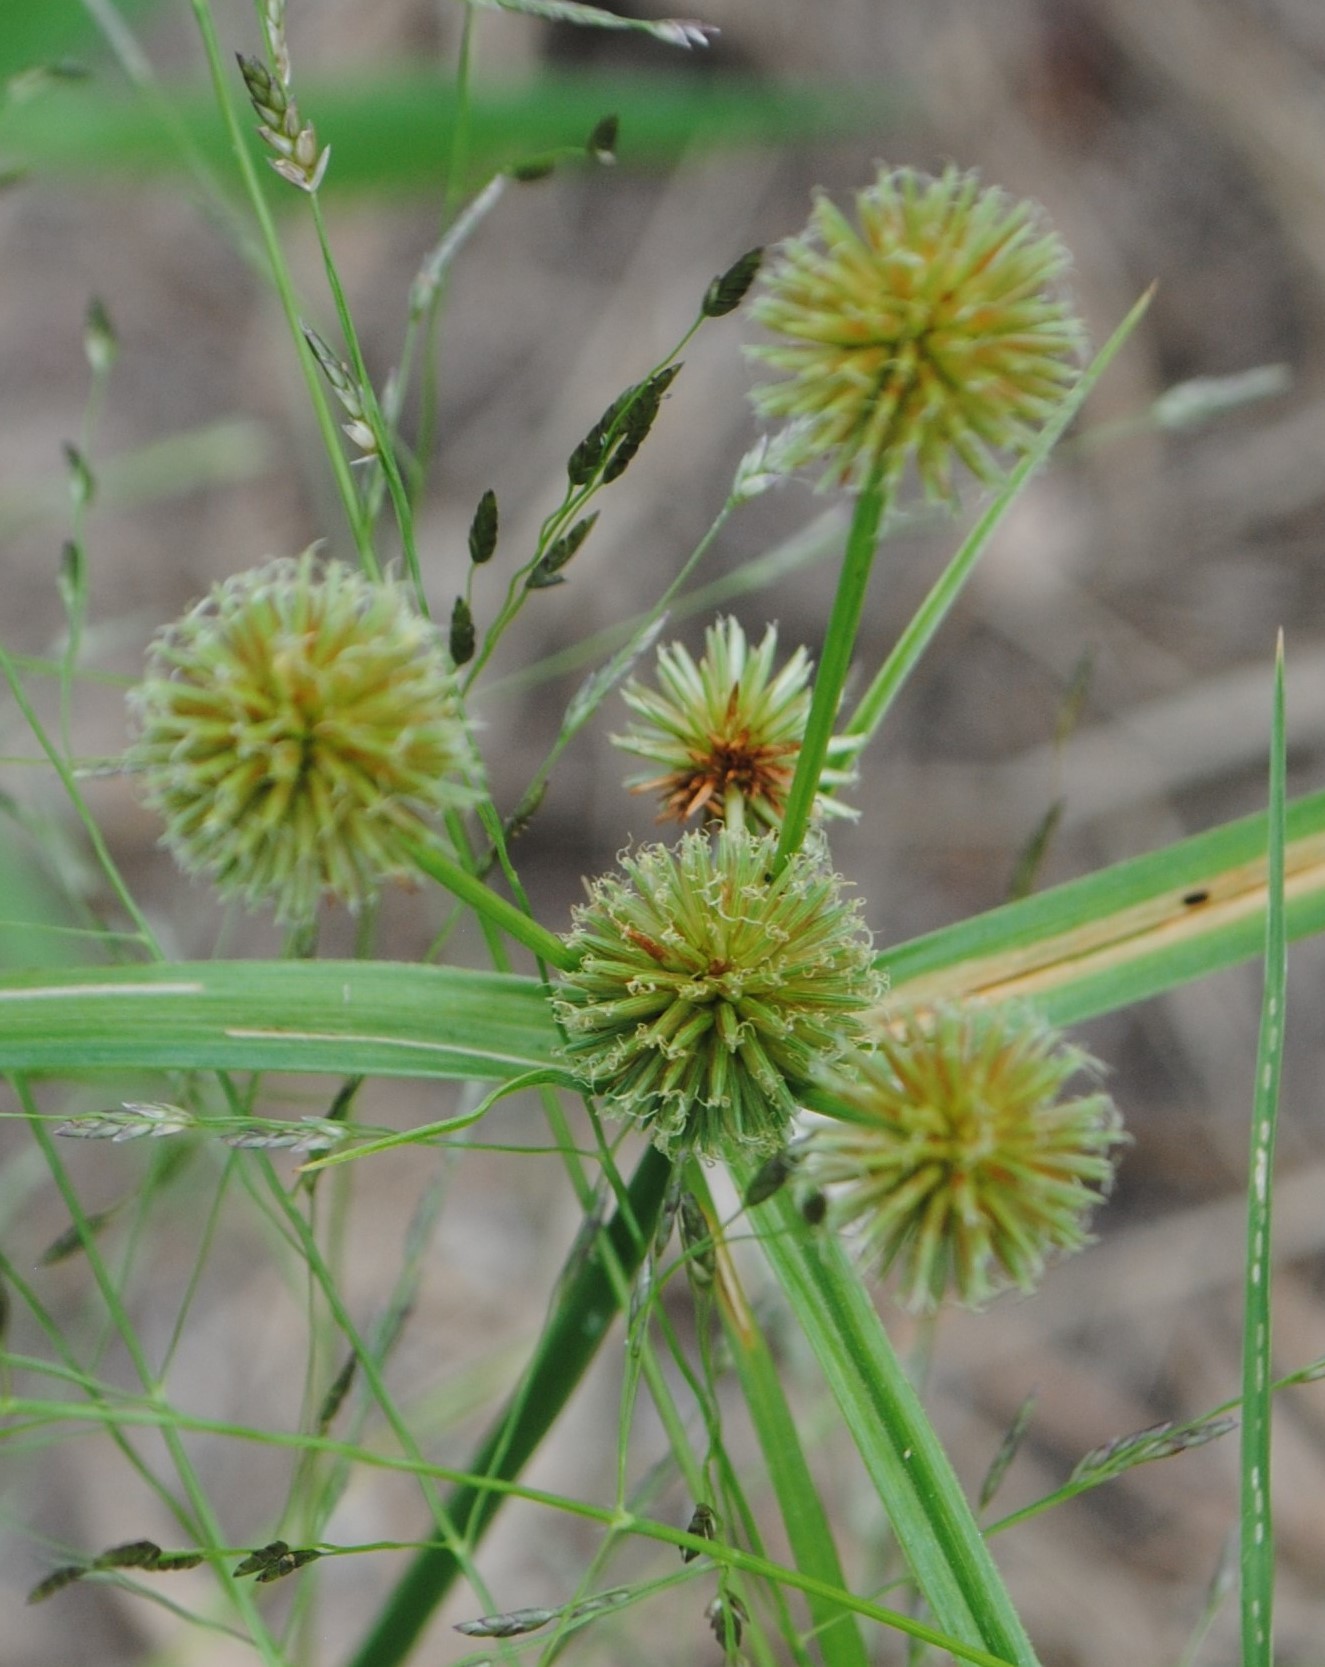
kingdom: Plantae
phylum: Tracheophyta
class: Liliopsida
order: Poales
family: Cyperaceae
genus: Cyperus
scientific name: Cyperus echinatus
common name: Teasel sedge
